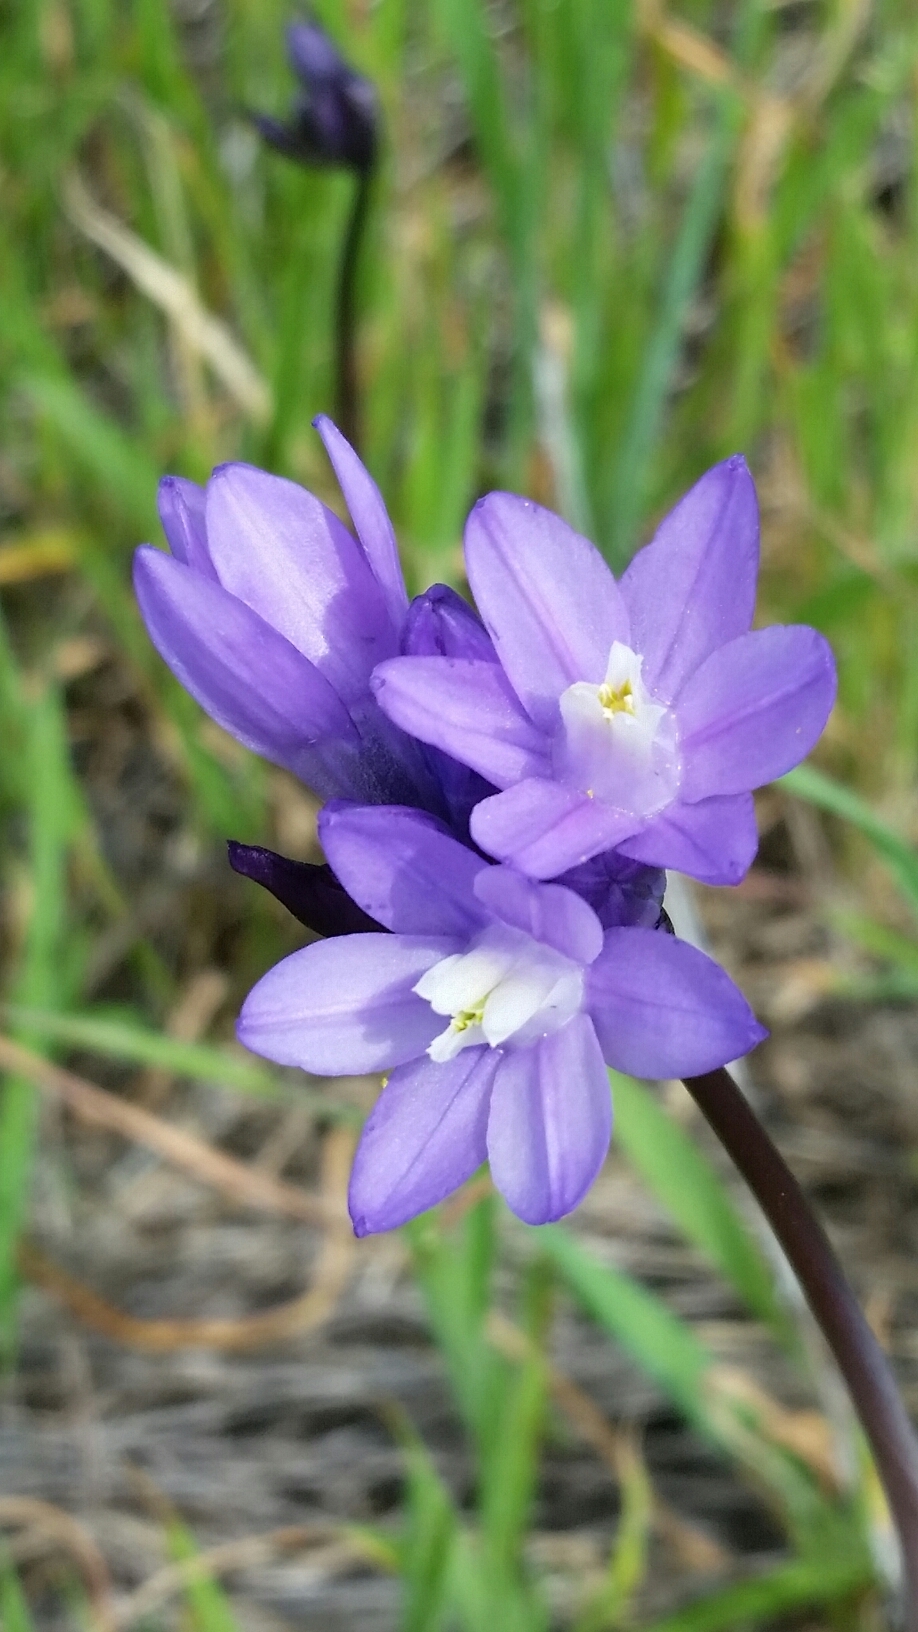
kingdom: Plantae
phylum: Tracheophyta
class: Liliopsida
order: Asparagales
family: Asparagaceae
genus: Dipterostemon
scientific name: Dipterostemon capitatus
